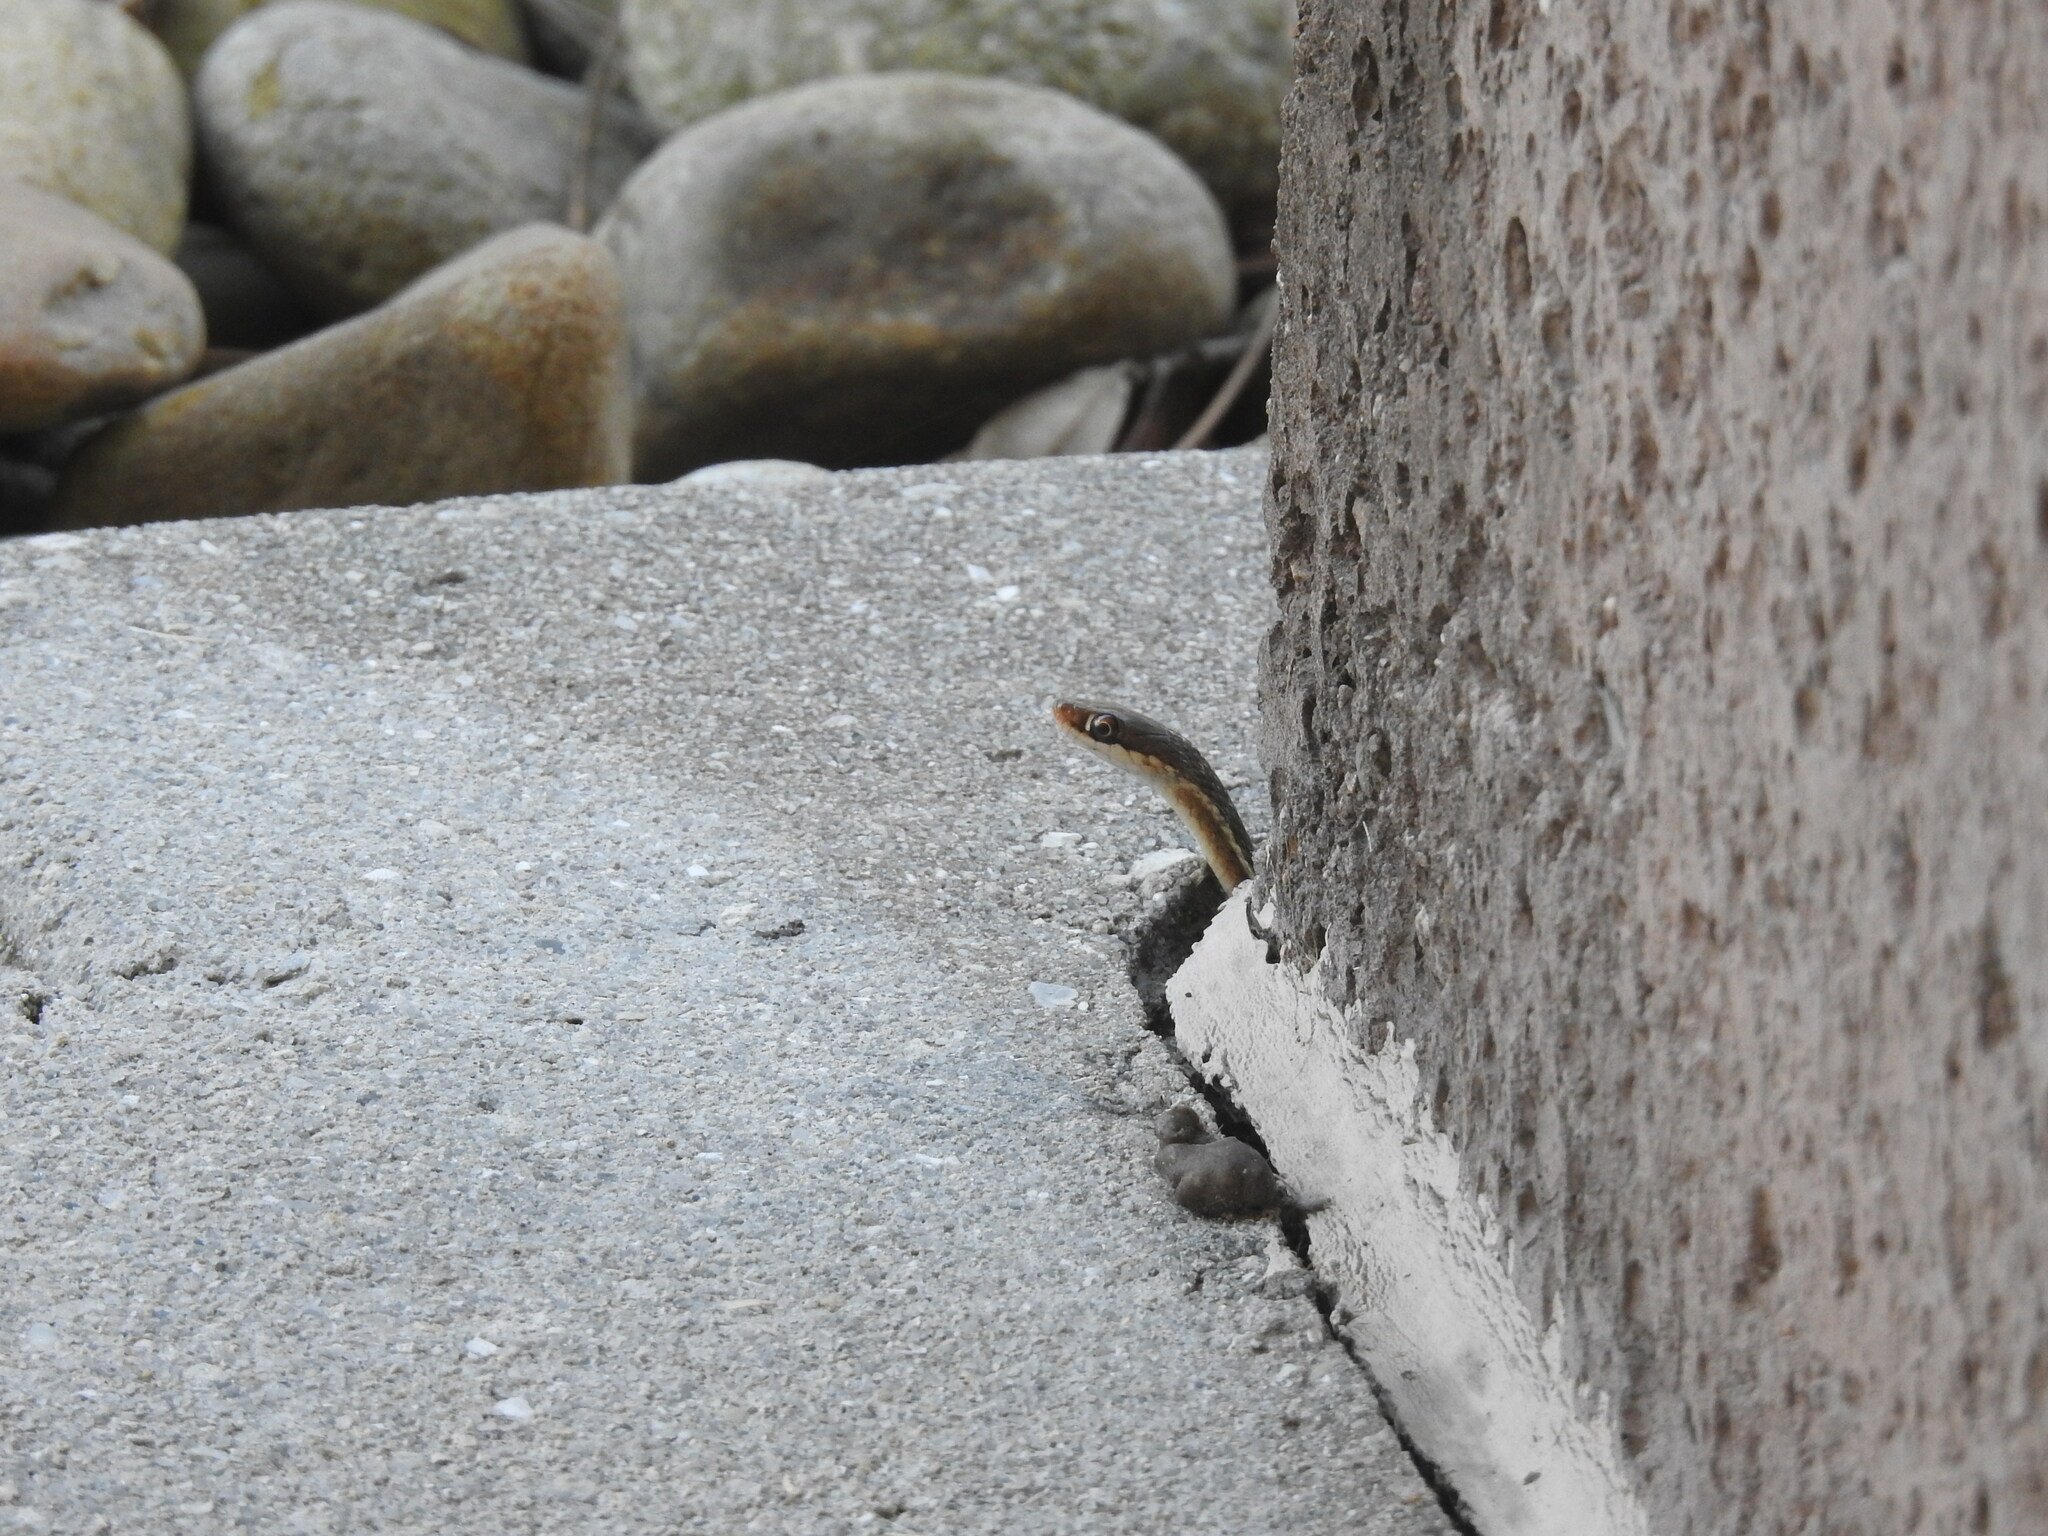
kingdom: Animalia
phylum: Chordata
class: Squamata
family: Colubridae
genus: Thamnophis
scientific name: Thamnophis saurita
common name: Eastern ribbonsnake
